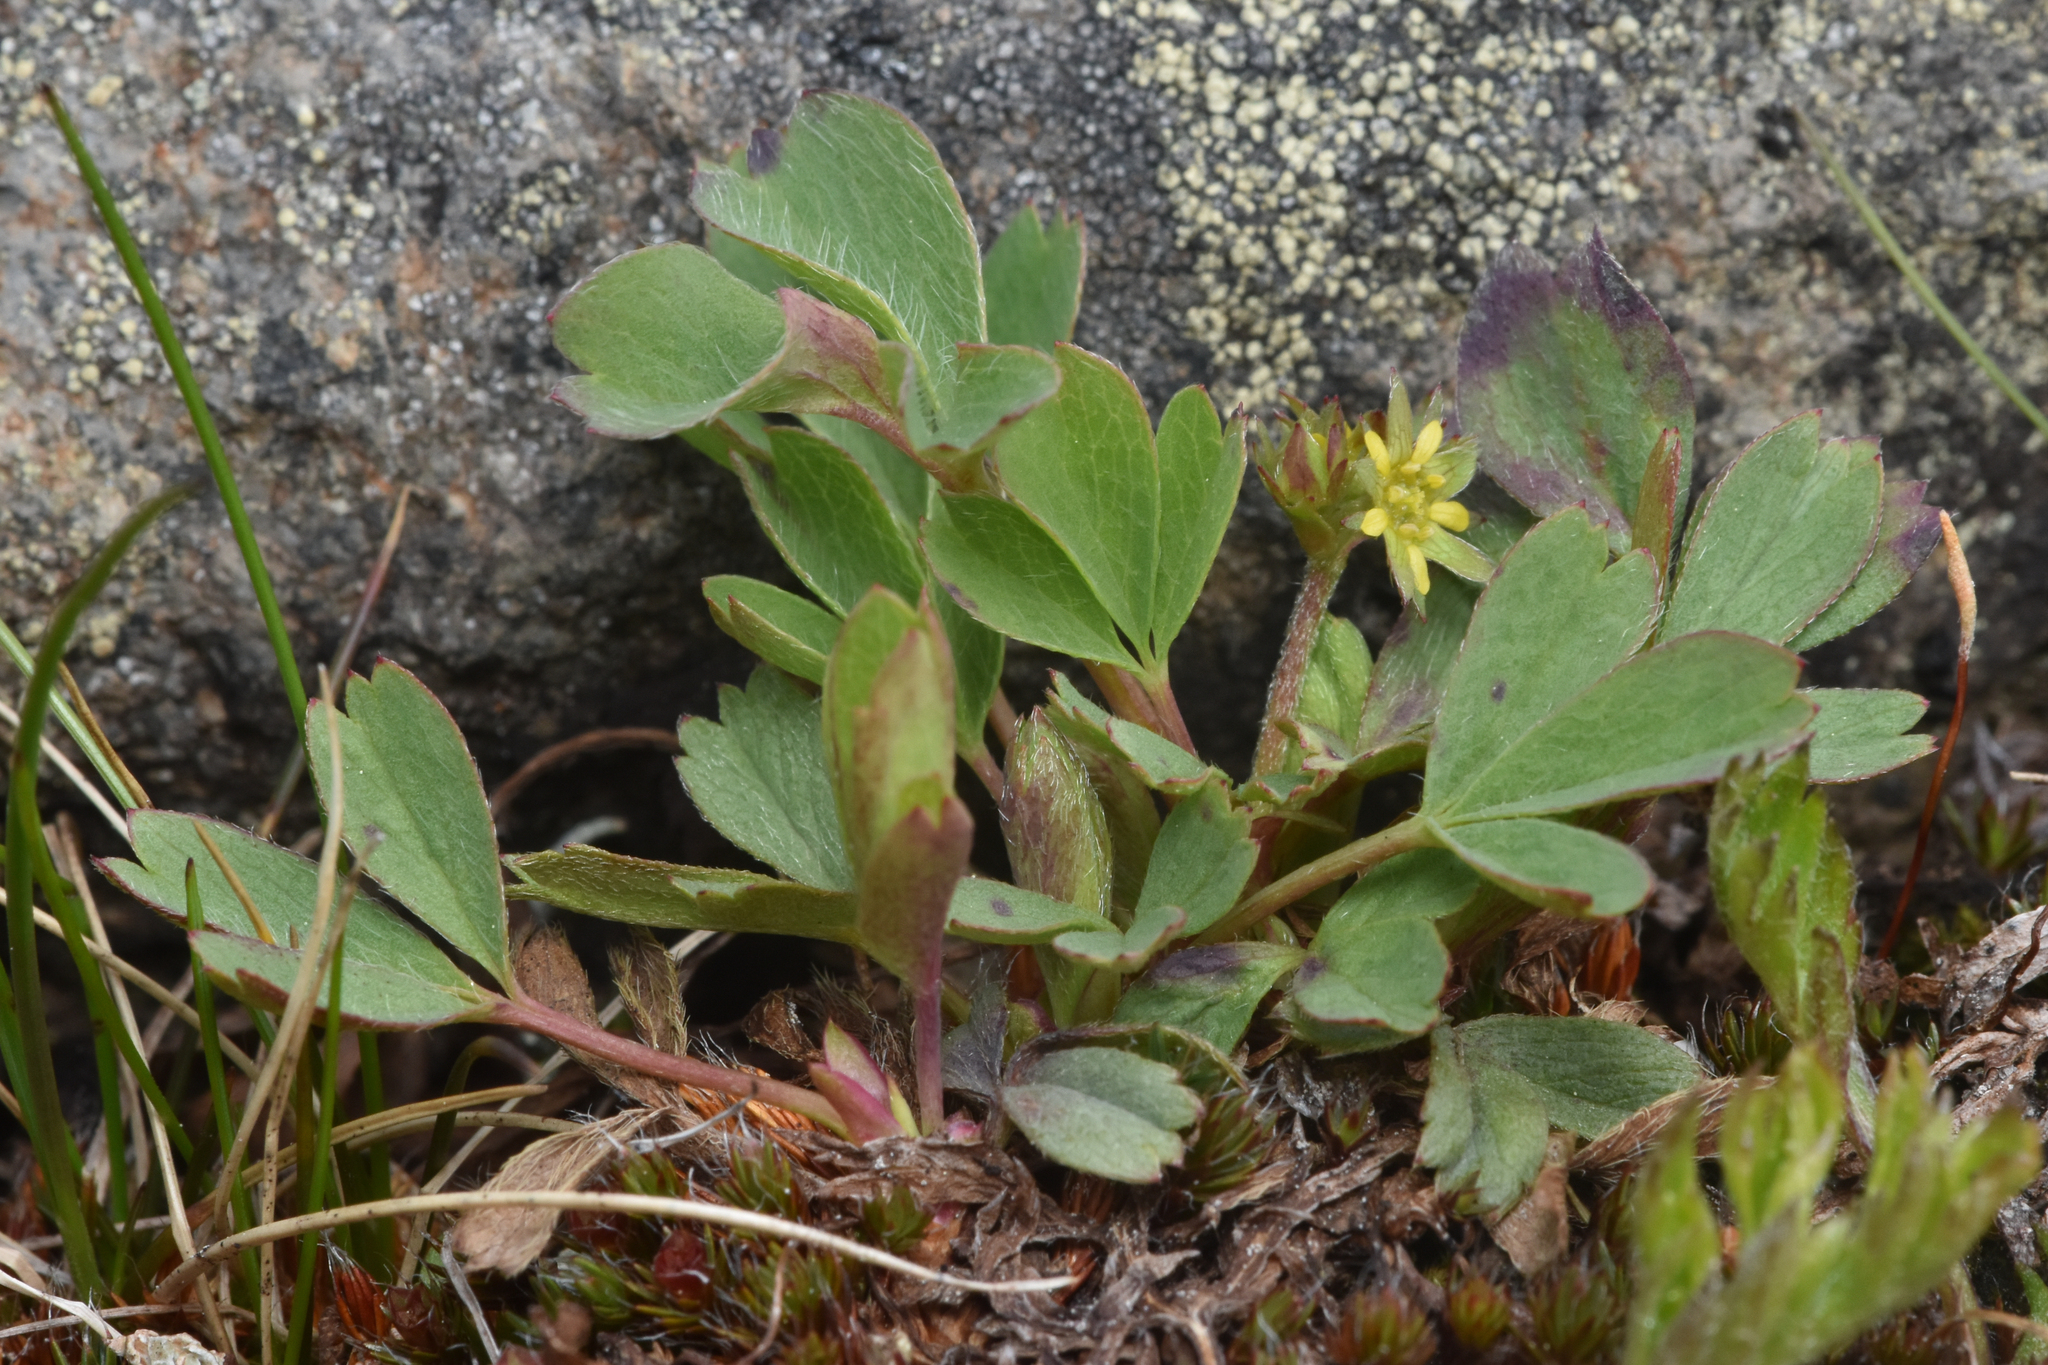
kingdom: Plantae
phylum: Tracheophyta
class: Magnoliopsida
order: Rosales
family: Rosaceae
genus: Sibbaldia
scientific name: Sibbaldia procumbens
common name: Creeping sibbaldia
